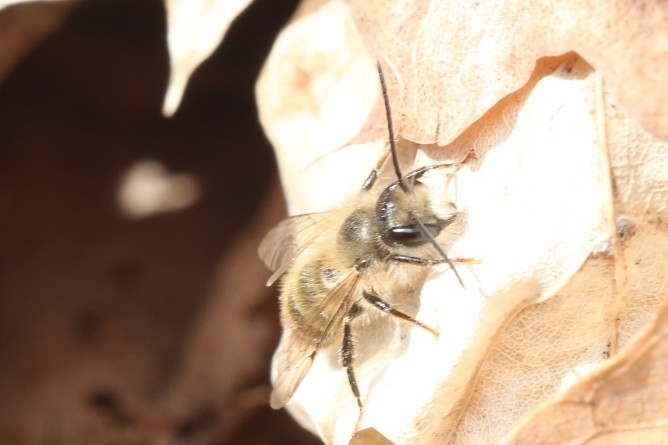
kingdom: Animalia
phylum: Arthropoda
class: Insecta
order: Hymenoptera
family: Megachilidae
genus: Osmia
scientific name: Osmia cornifrons
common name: Horn-faced bee
